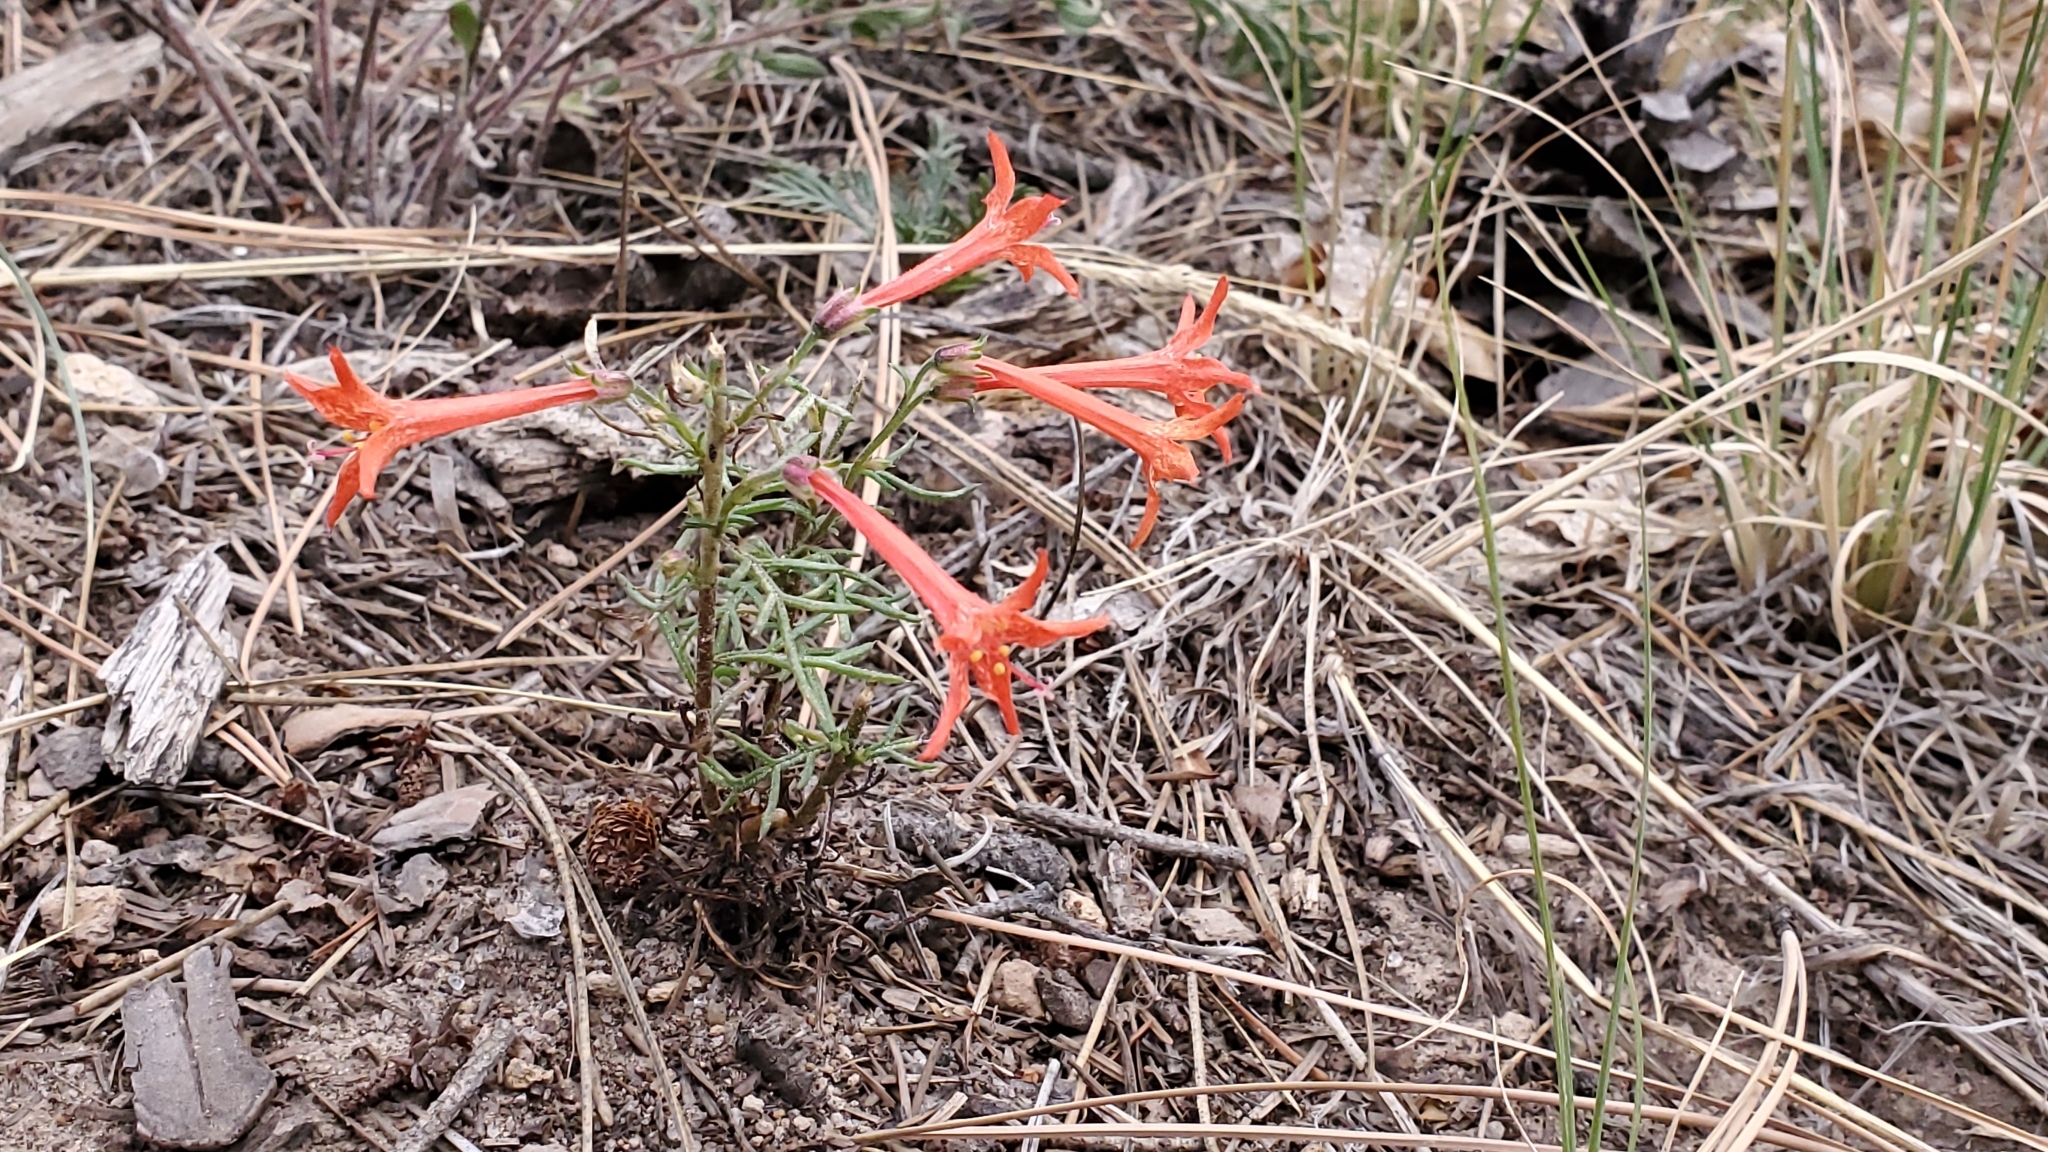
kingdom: Plantae
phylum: Tracheophyta
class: Magnoliopsida
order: Ericales
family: Polemoniaceae
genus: Ipomopsis
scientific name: Ipomopsis aggregata
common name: Scarlet gilia
